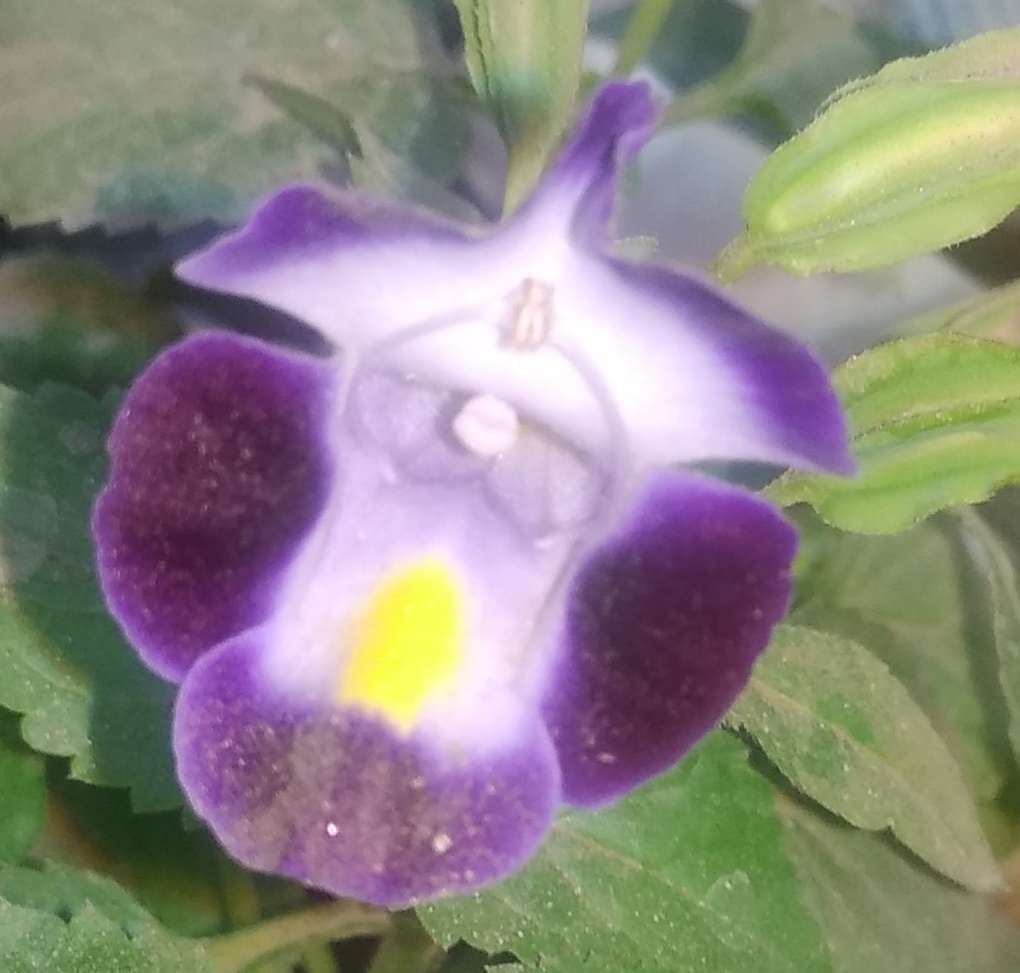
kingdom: Plantae
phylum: Tracheophyta
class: Magnoliopsida
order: Lamiales
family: Linderniaceae
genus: Torenia
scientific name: Torenia fournieri
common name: Bluewings
